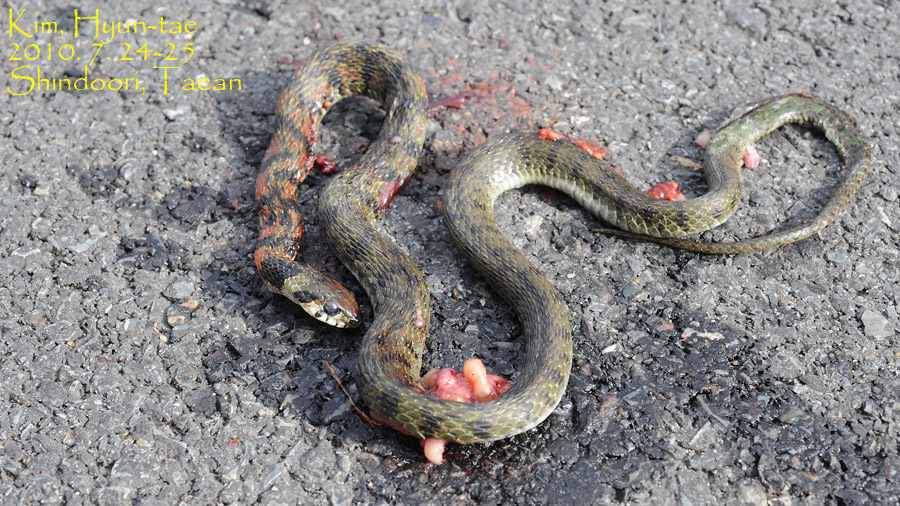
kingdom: Animalia
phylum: Chordata
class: Squamata
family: Colubridae
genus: Rhabdophis
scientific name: Rhabdophis tigrinus
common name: Tiger keelback
